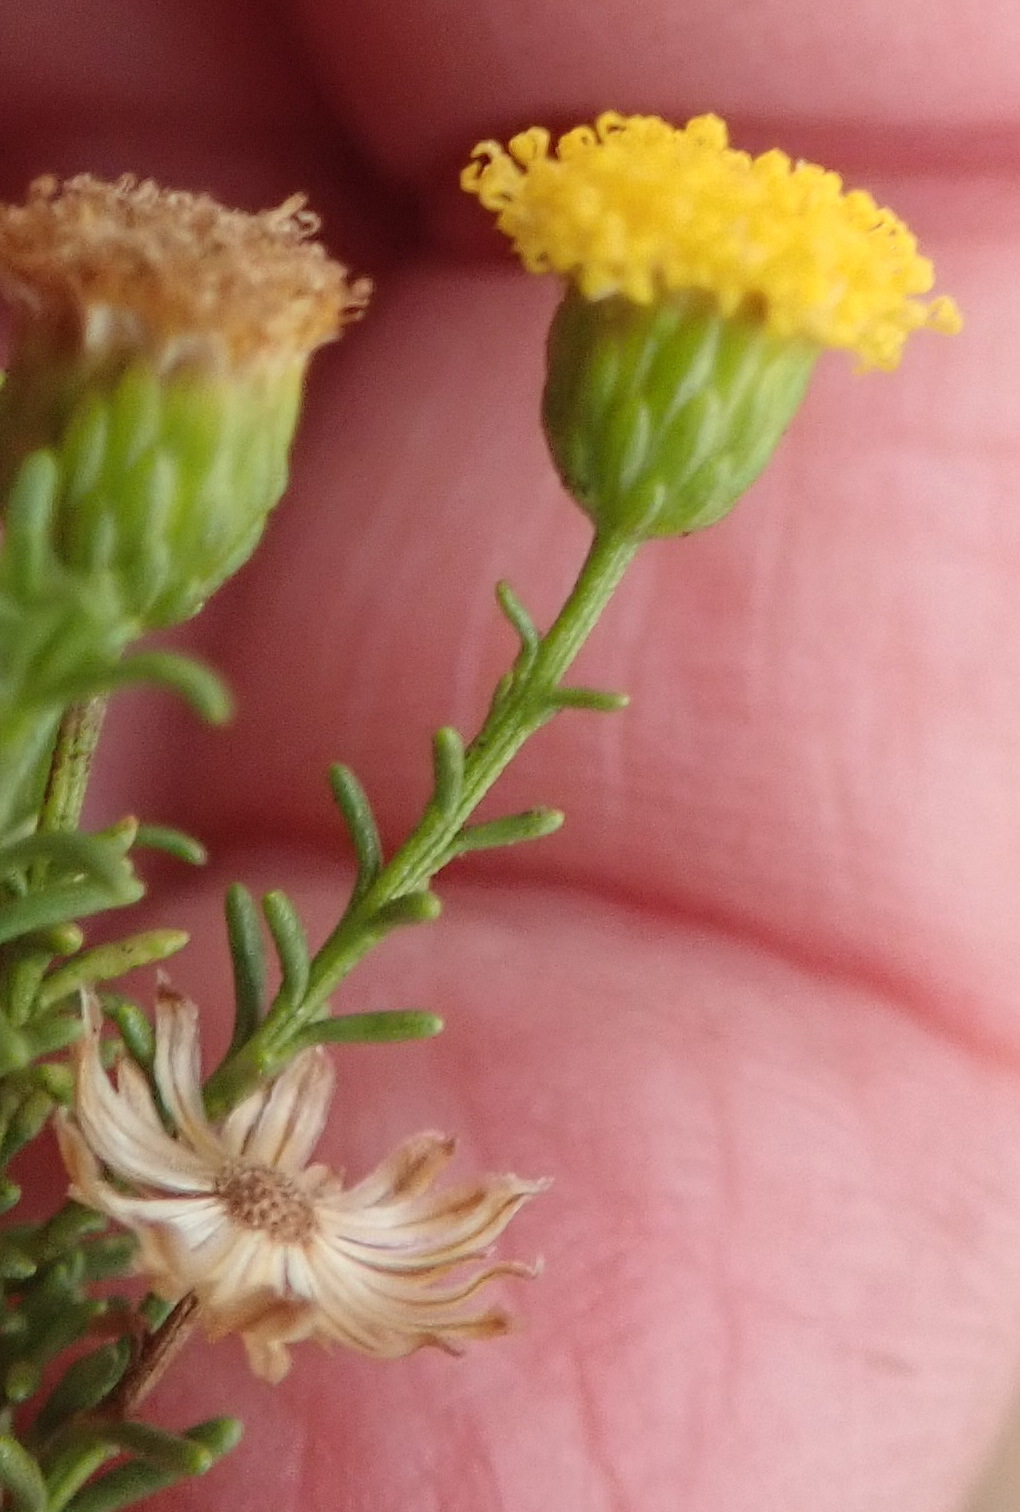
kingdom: Plantae
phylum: Tracheophyta
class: Magnoliopsida
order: Asterales
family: Asteraceae
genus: Chrysocoma
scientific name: Chrysocoma ciliata
